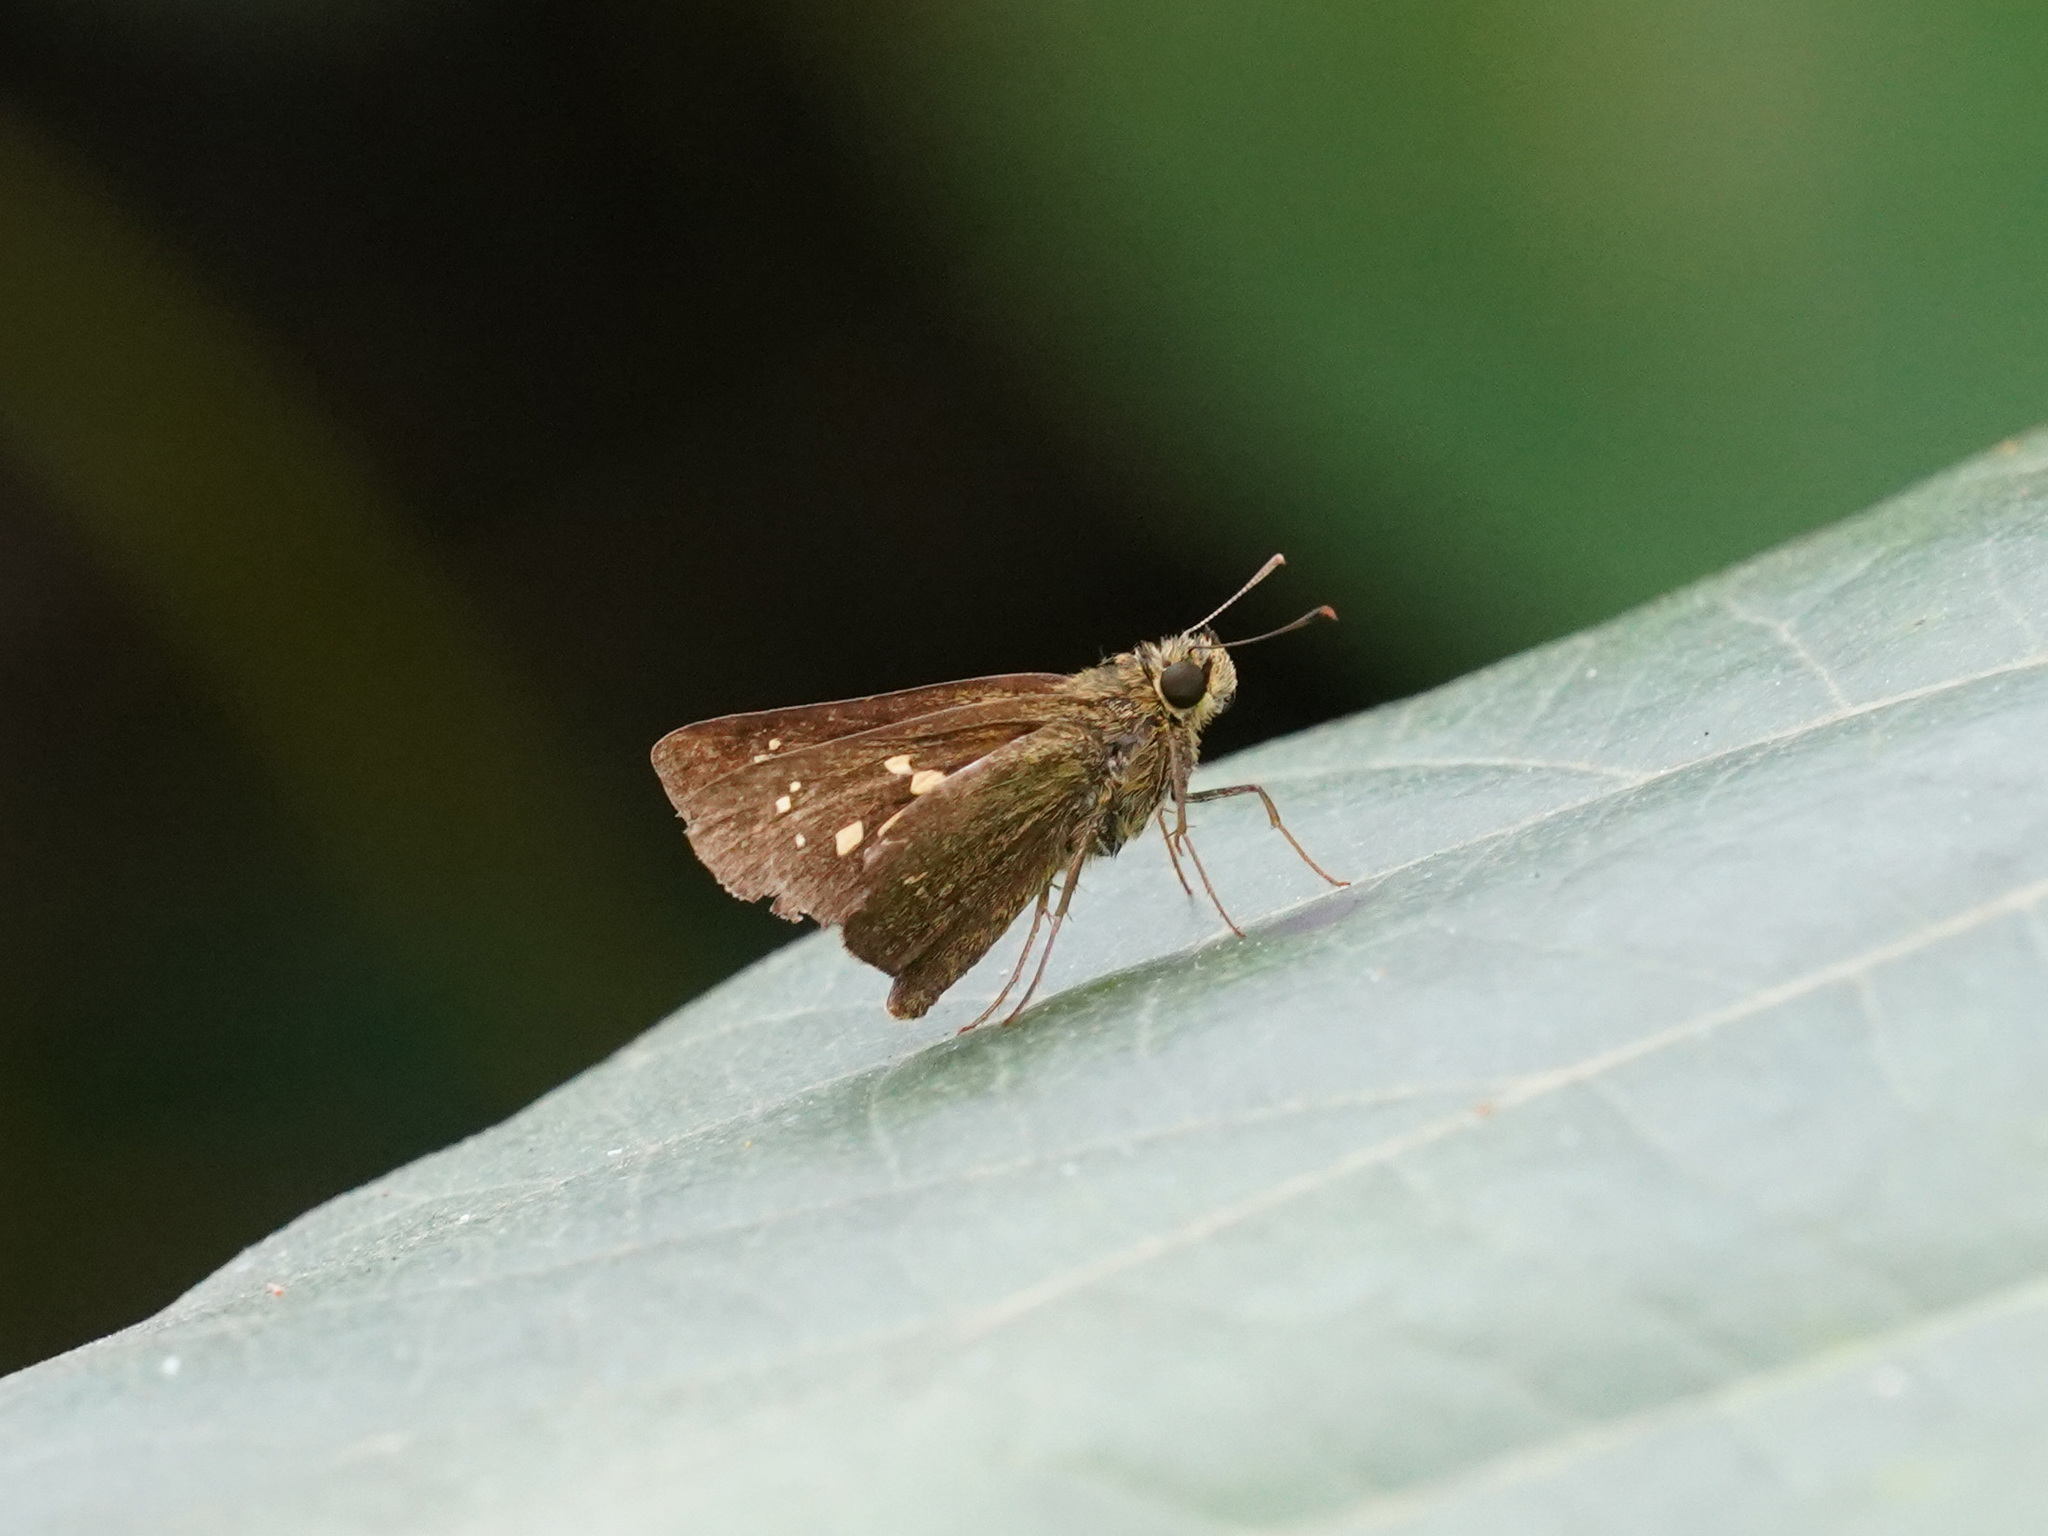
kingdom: Animalia
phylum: Arthropoda
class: Insecta
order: Lepidoptera
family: Hesperiidae
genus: Polytremis
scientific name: Polytremis lubricans
